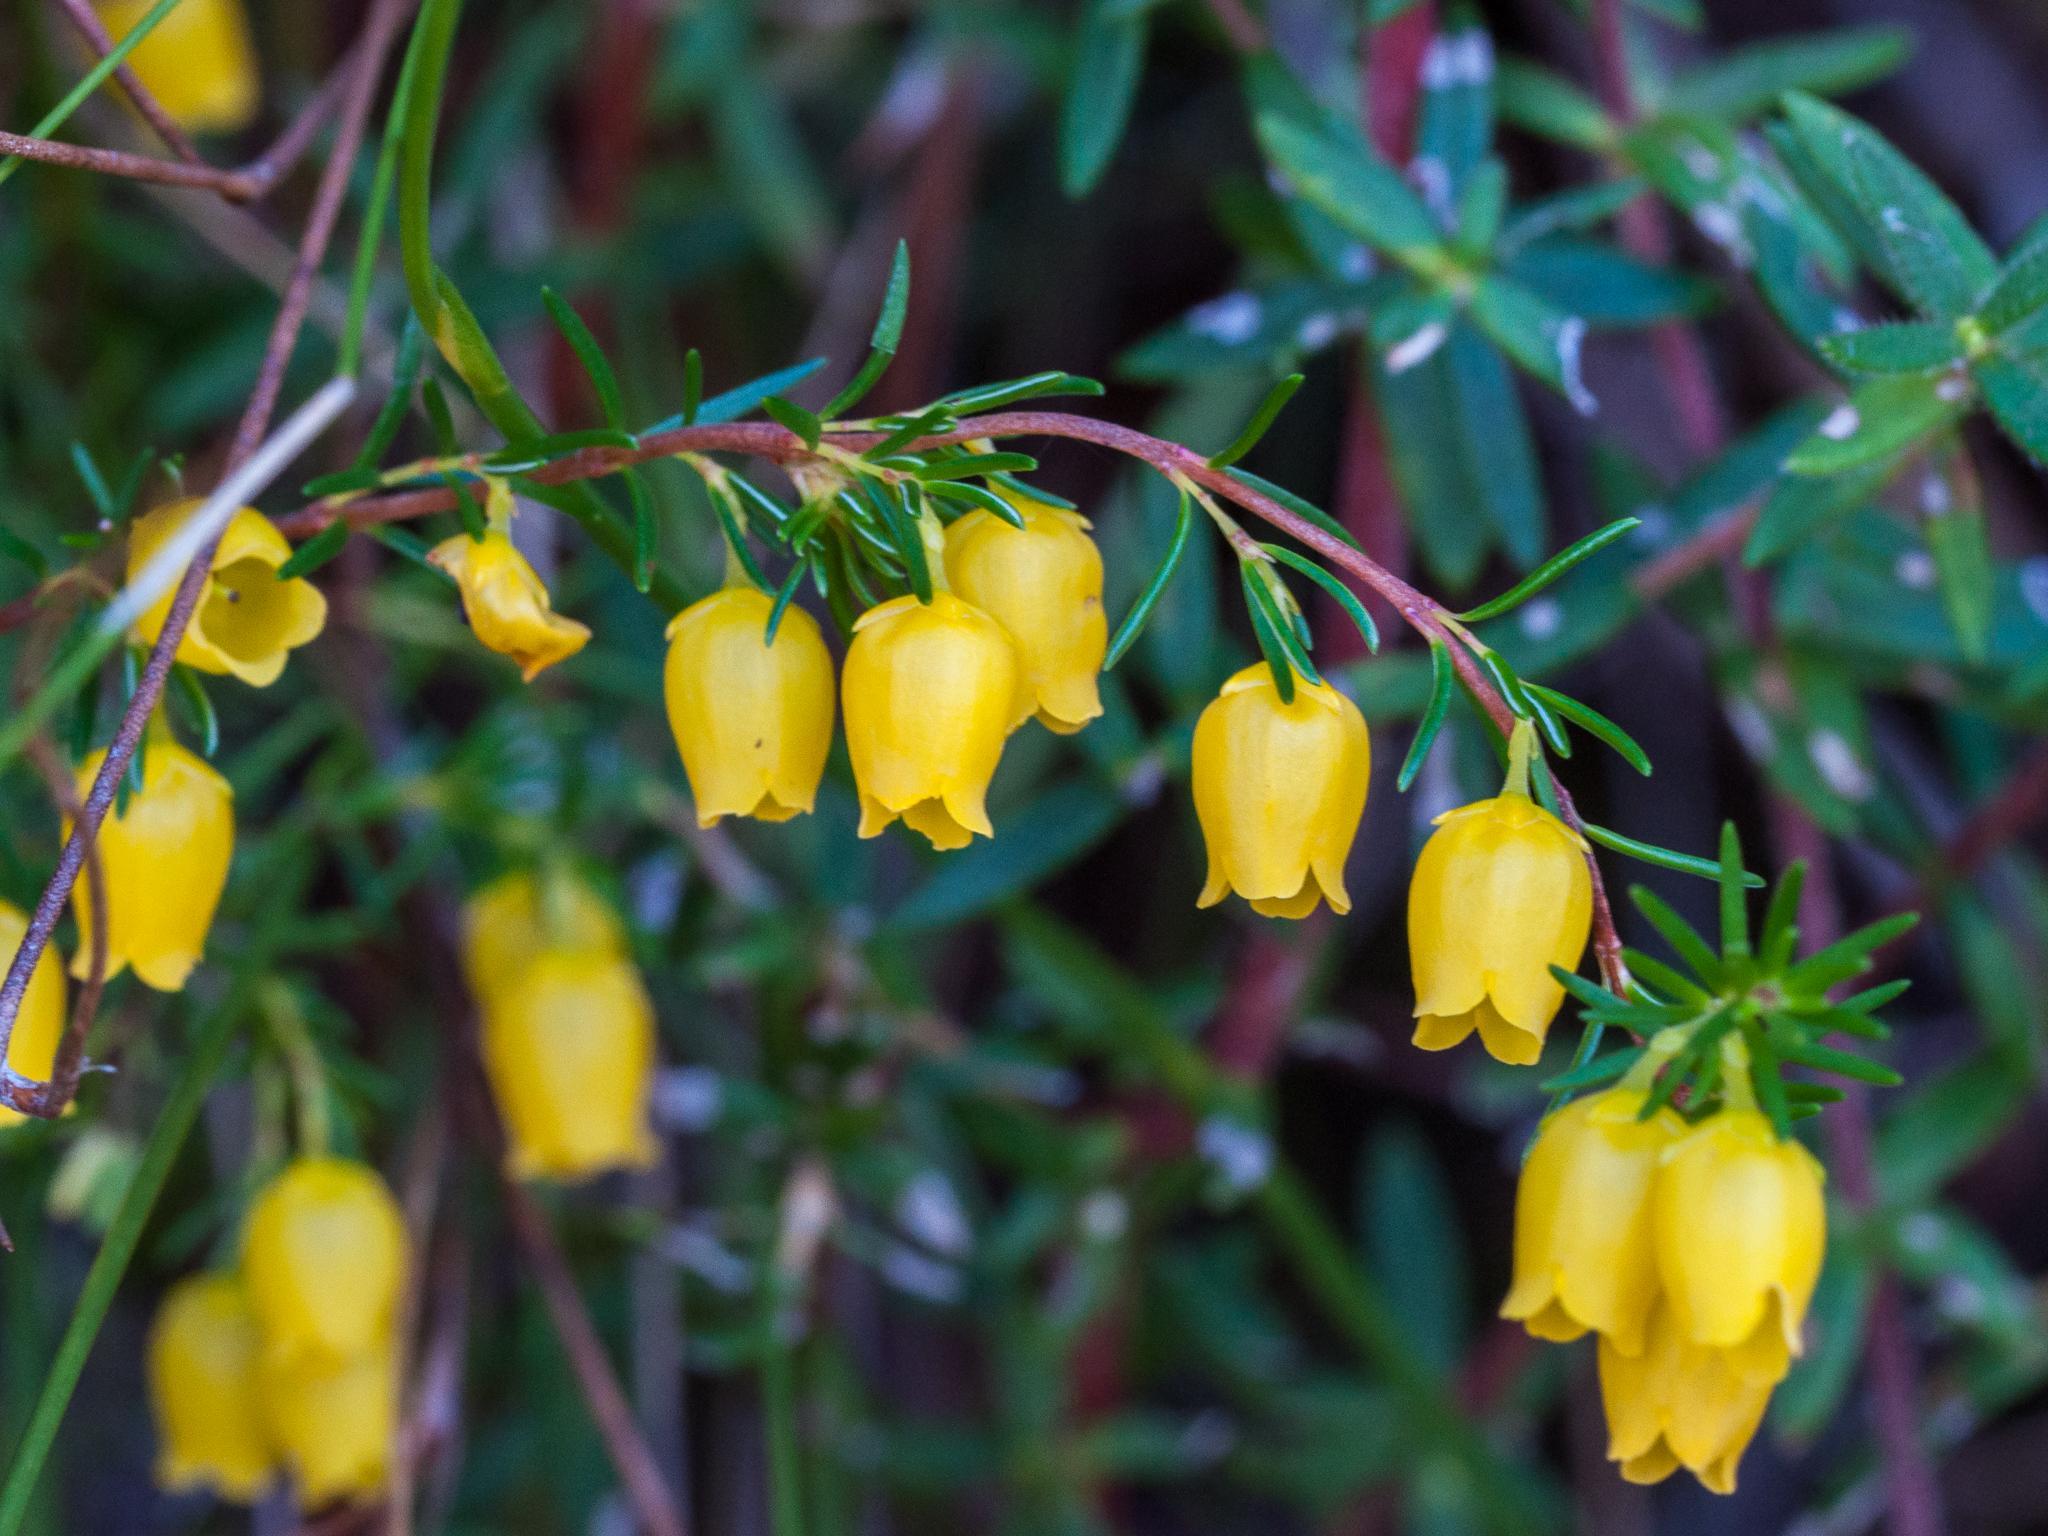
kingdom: Plantae
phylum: Tracheophyta
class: Magnoliopsida
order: Ericales
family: Ericaceae
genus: Erica
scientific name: Erica campanularis
